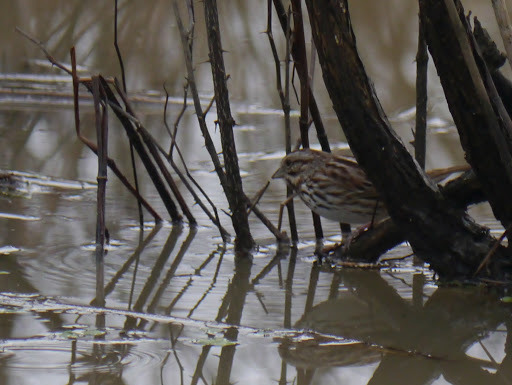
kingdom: Animalia
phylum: Chordata
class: Aves
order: Passeriformes
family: Passerellidae
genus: Melospiza
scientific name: Melospiza melodia
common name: Song sparrow
